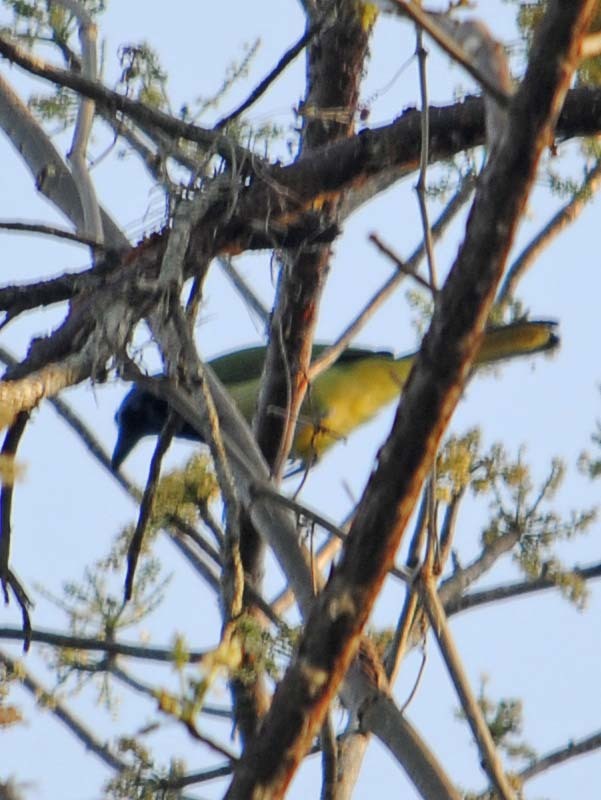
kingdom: Animalia
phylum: Chordata
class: Aves
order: Passeriformes
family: Corvidae
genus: Cyanocorax
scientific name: Cyanocorax yncas
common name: Green jay
